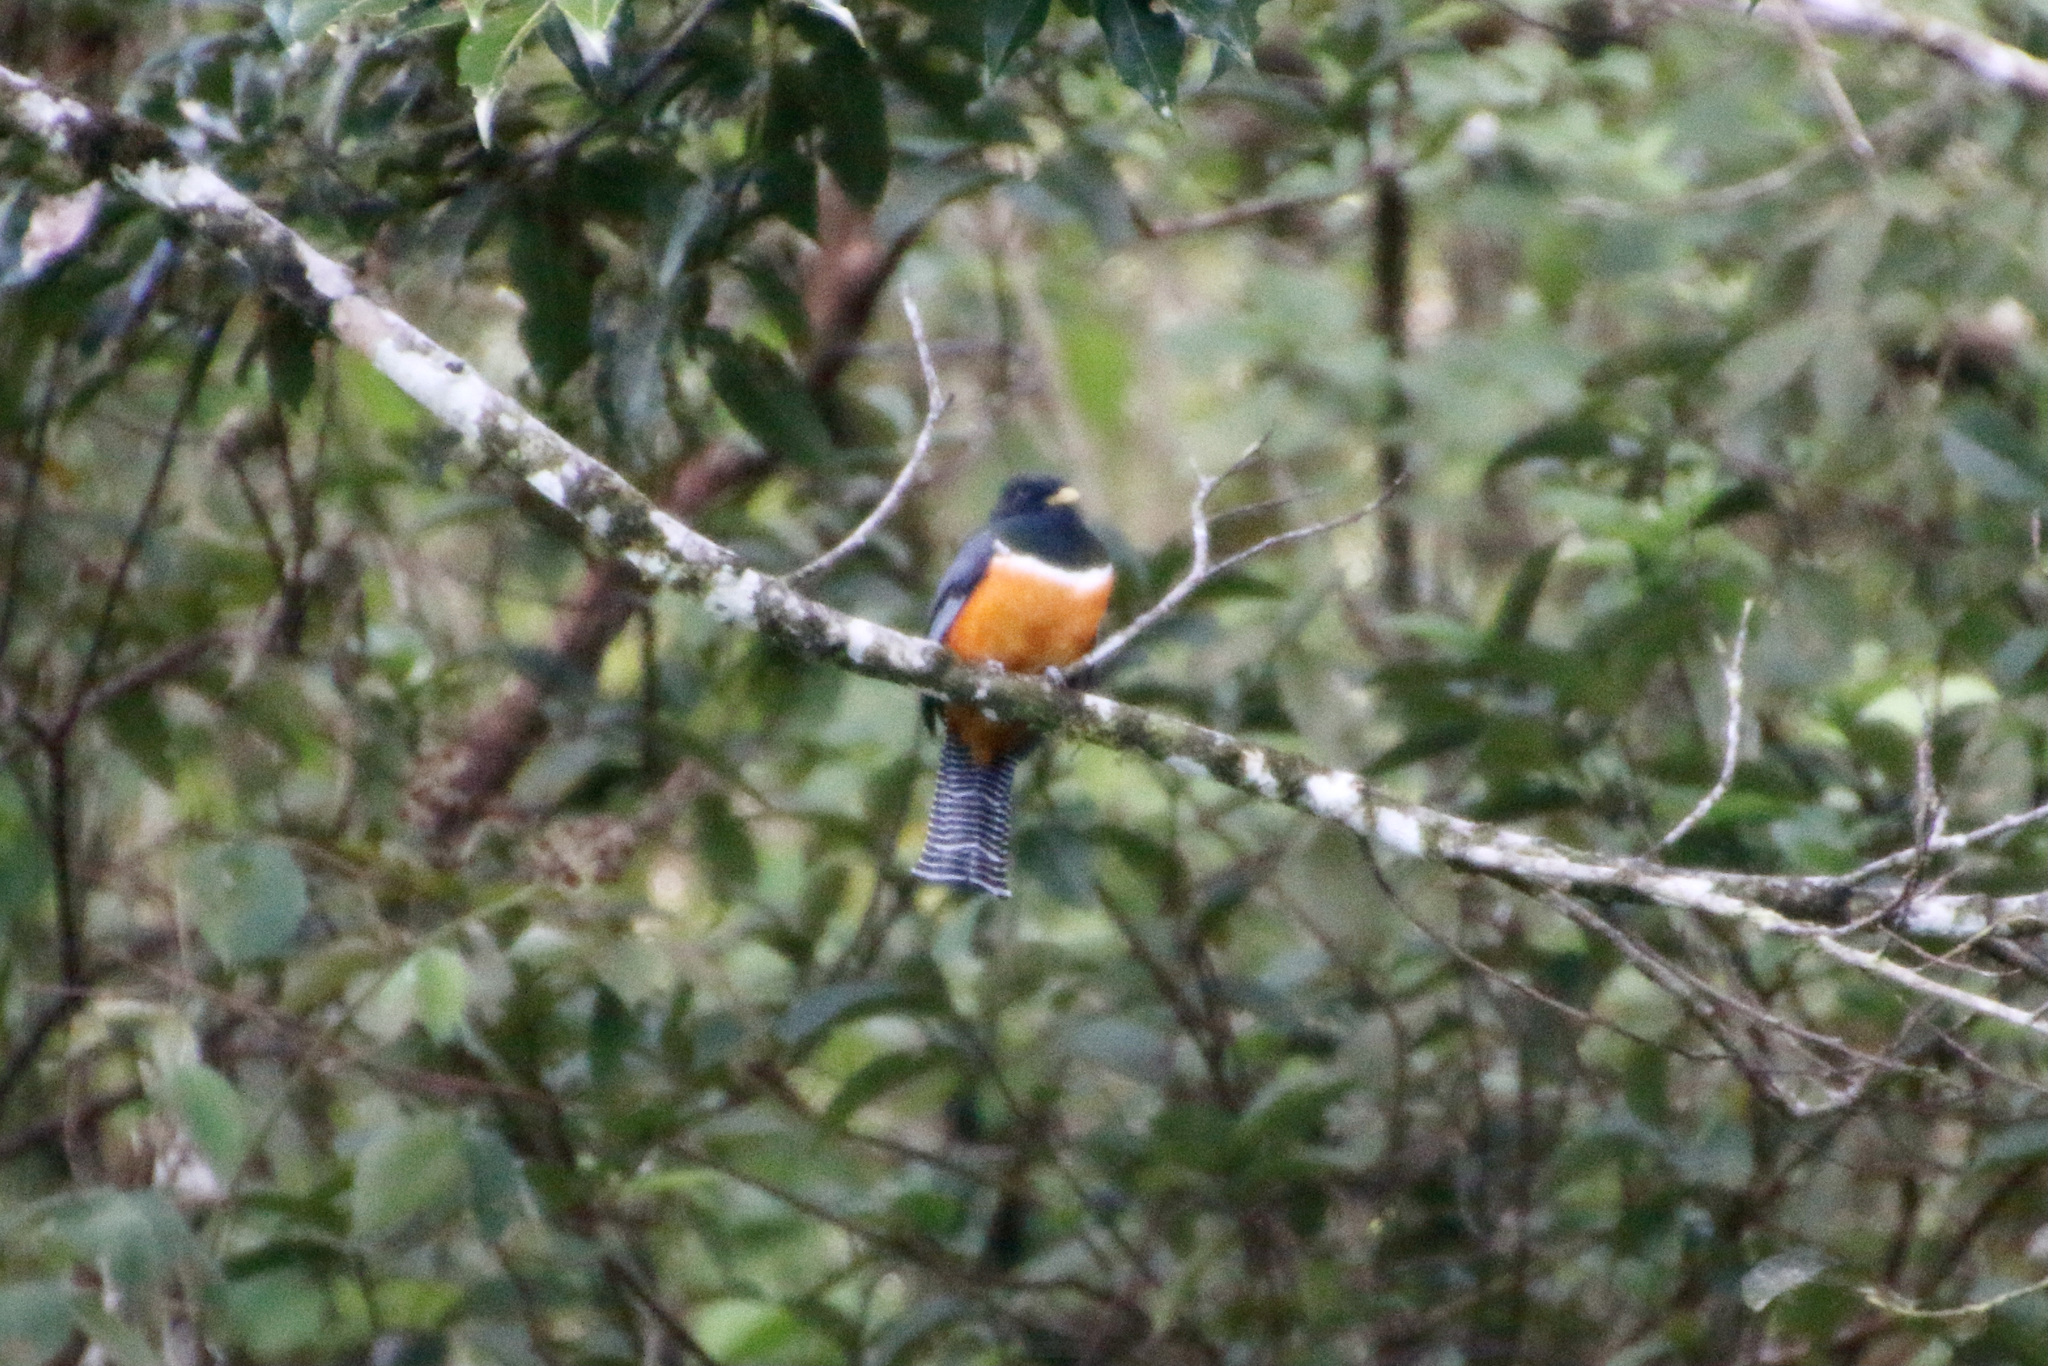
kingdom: Animalia
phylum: Chordata
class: Aves
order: Trogoniformes
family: Trogonidae
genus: Trogon
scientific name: Trogon collaris
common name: Collared trogon
